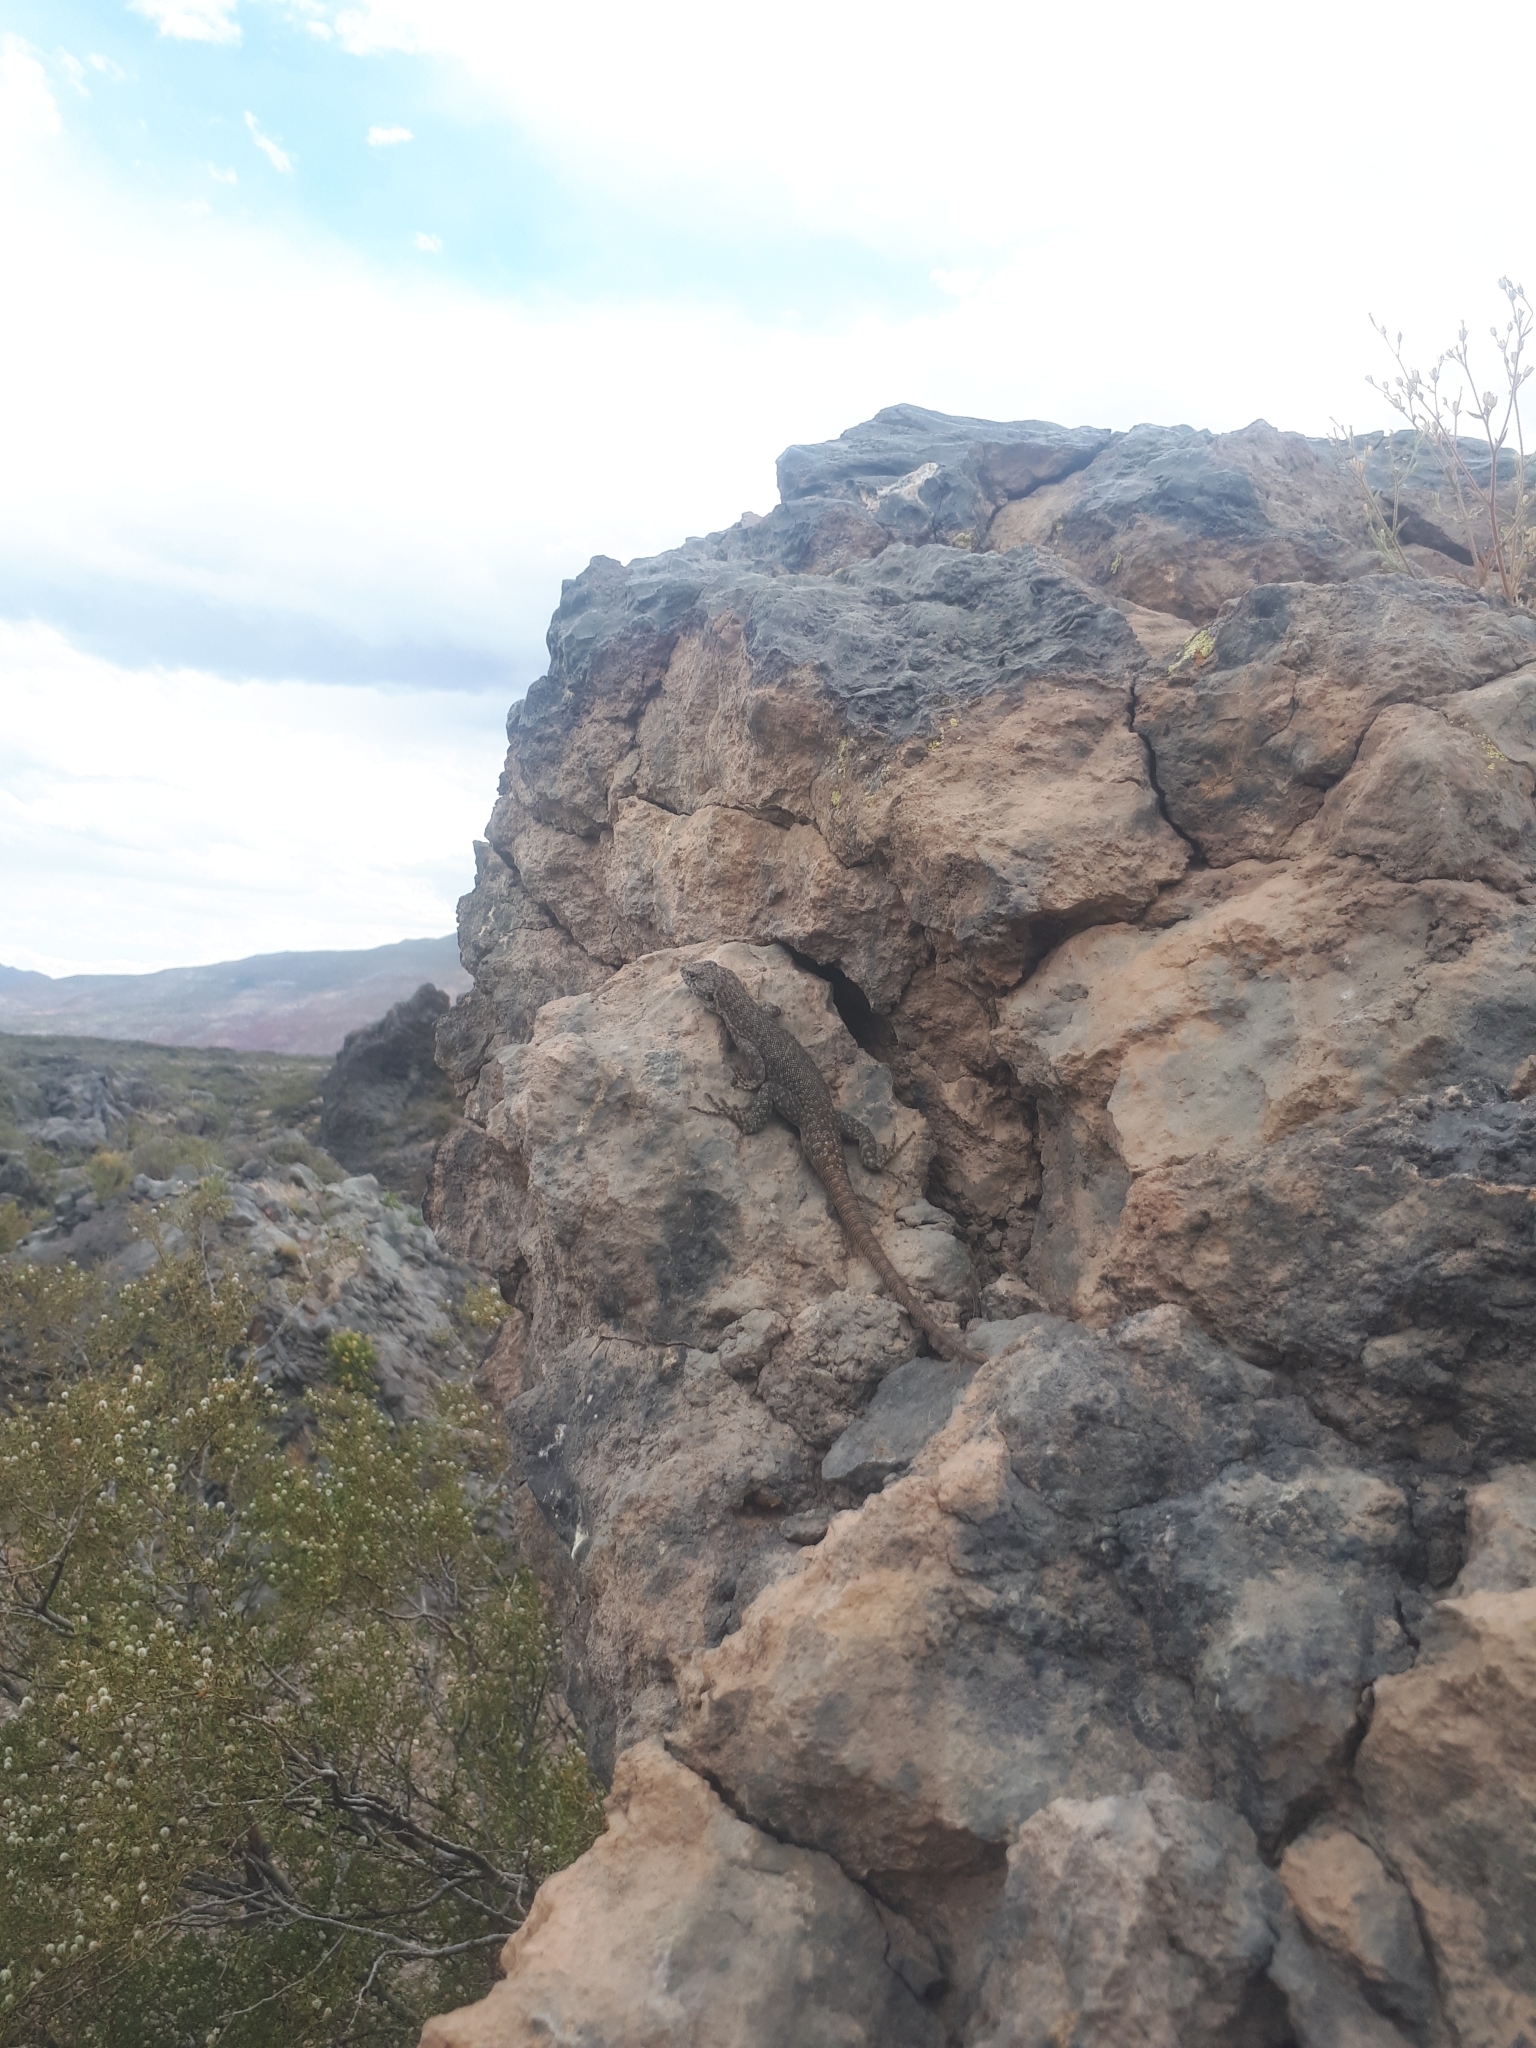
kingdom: Animalia
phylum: Chordata
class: Squamata
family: Liolaemidae
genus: Liolaemus
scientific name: Liolaemus austromendocinus
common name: Austromendocino tree iguana
